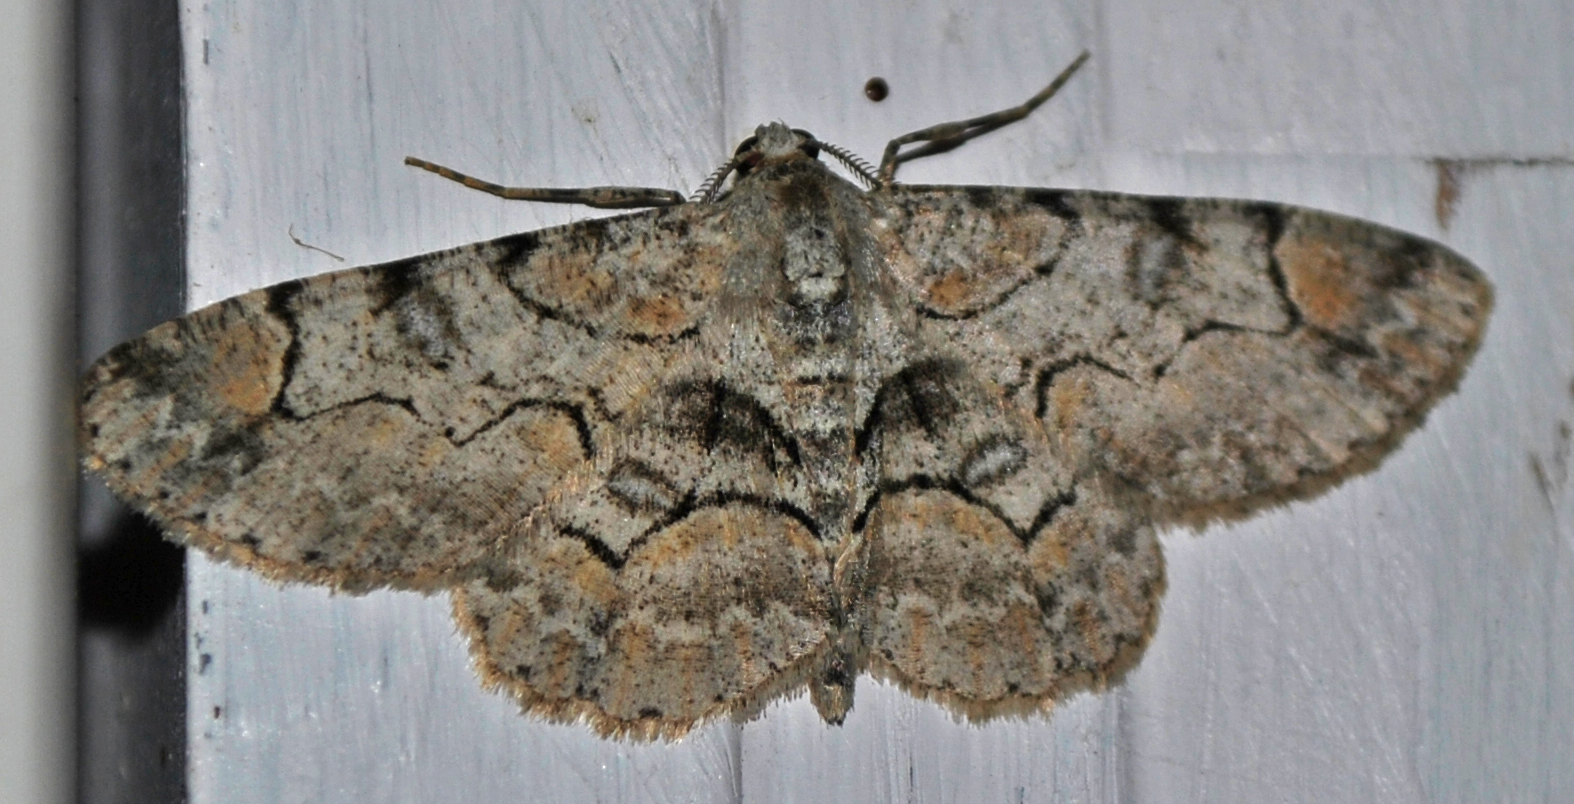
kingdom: Animalia
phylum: Arthropoda
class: Insecta
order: Lepidoptera
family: Geometridae
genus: Iridopsis
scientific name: Iridopsis larvaria
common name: Bent-line gray
